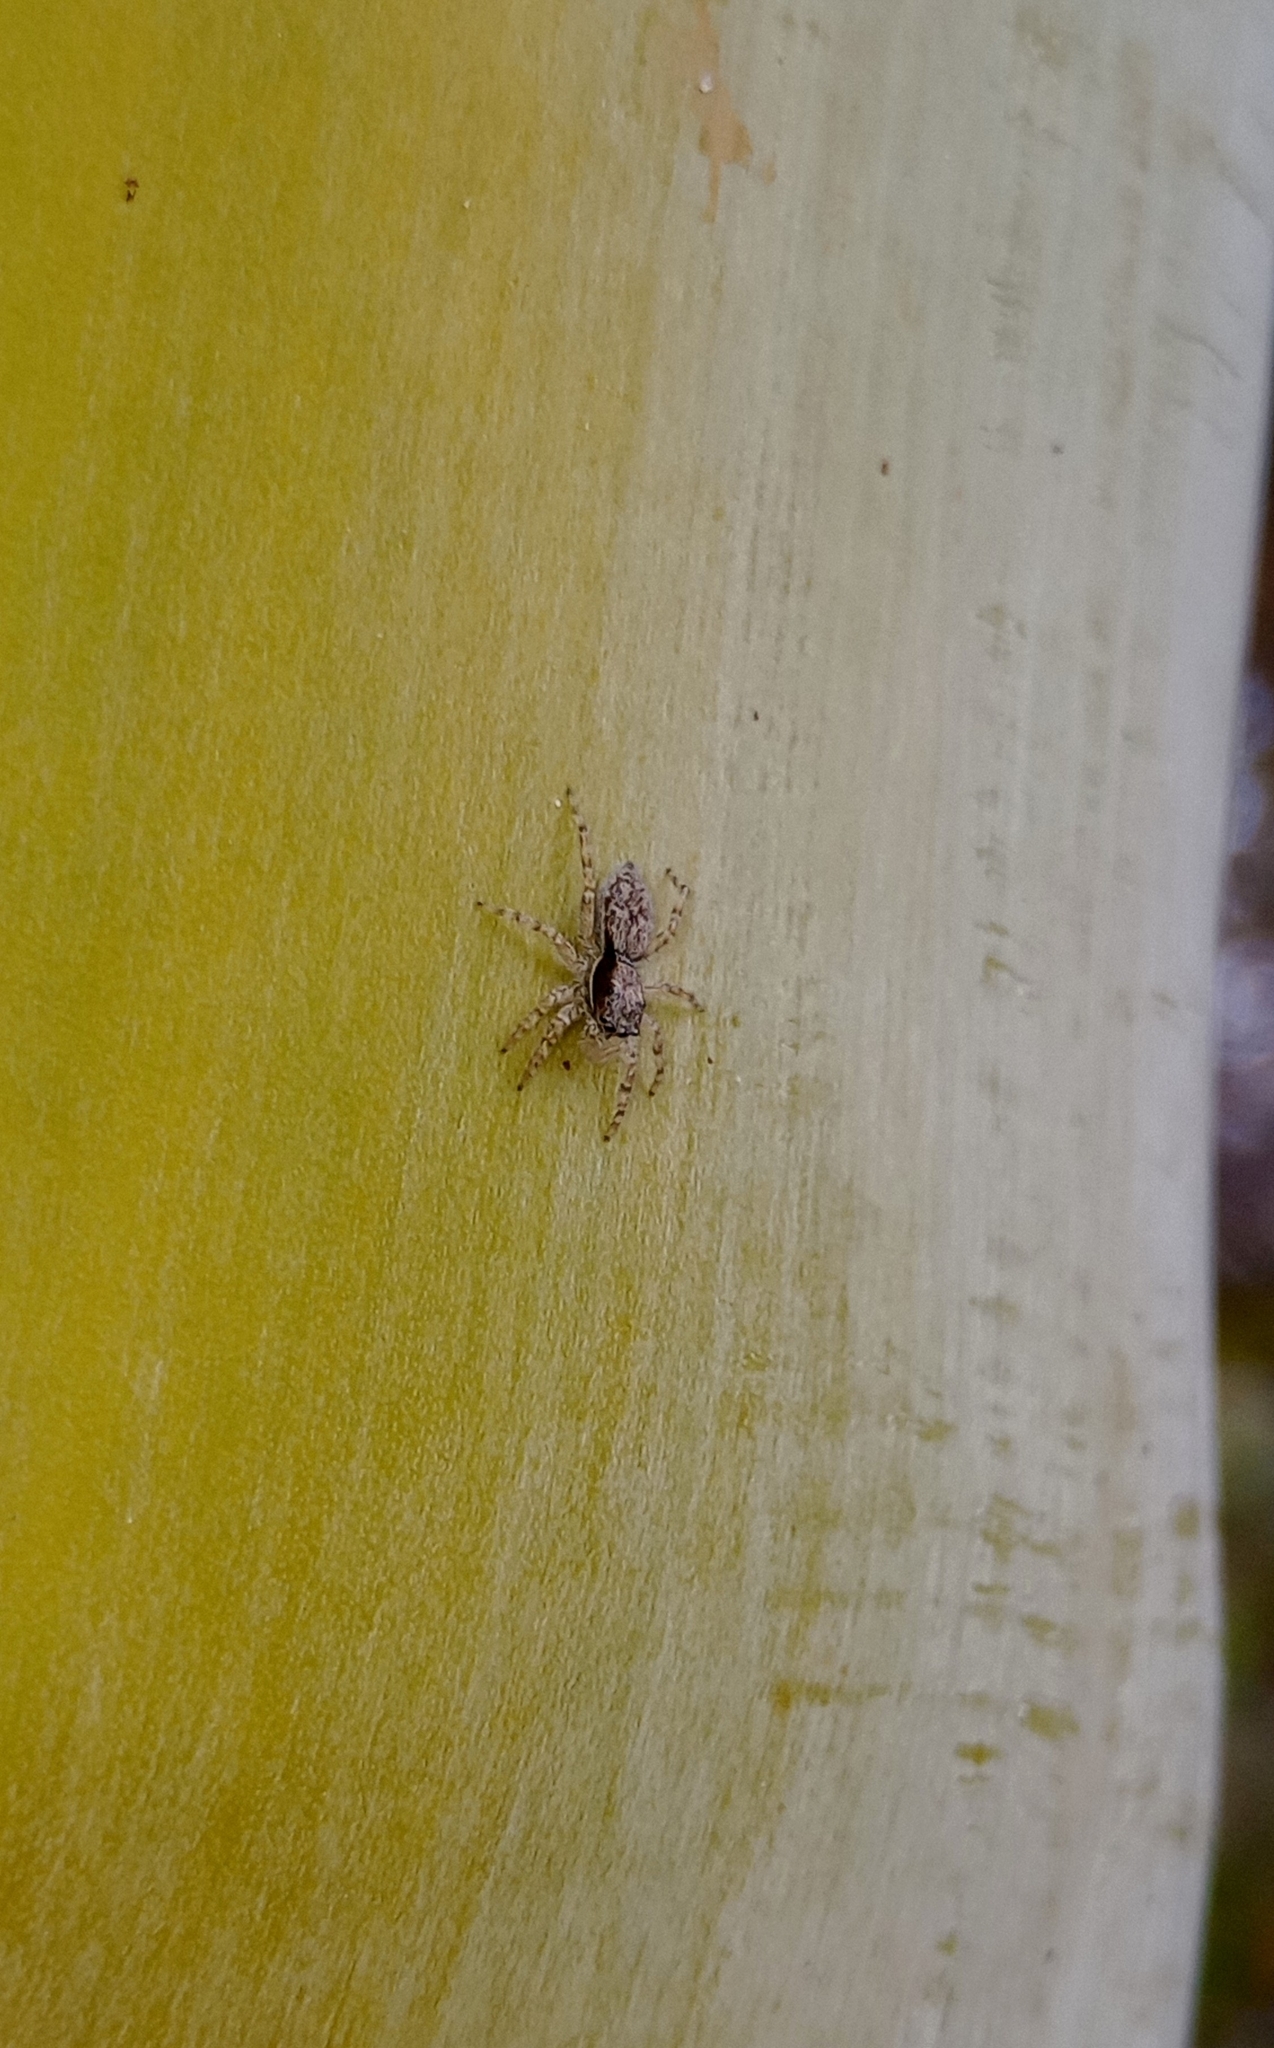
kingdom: Animalia
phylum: Arthropoda
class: Arachnida
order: Araneae
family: Salticidae
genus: Menemerus
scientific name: Menemerus bivittatus
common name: Gray wall jumper
